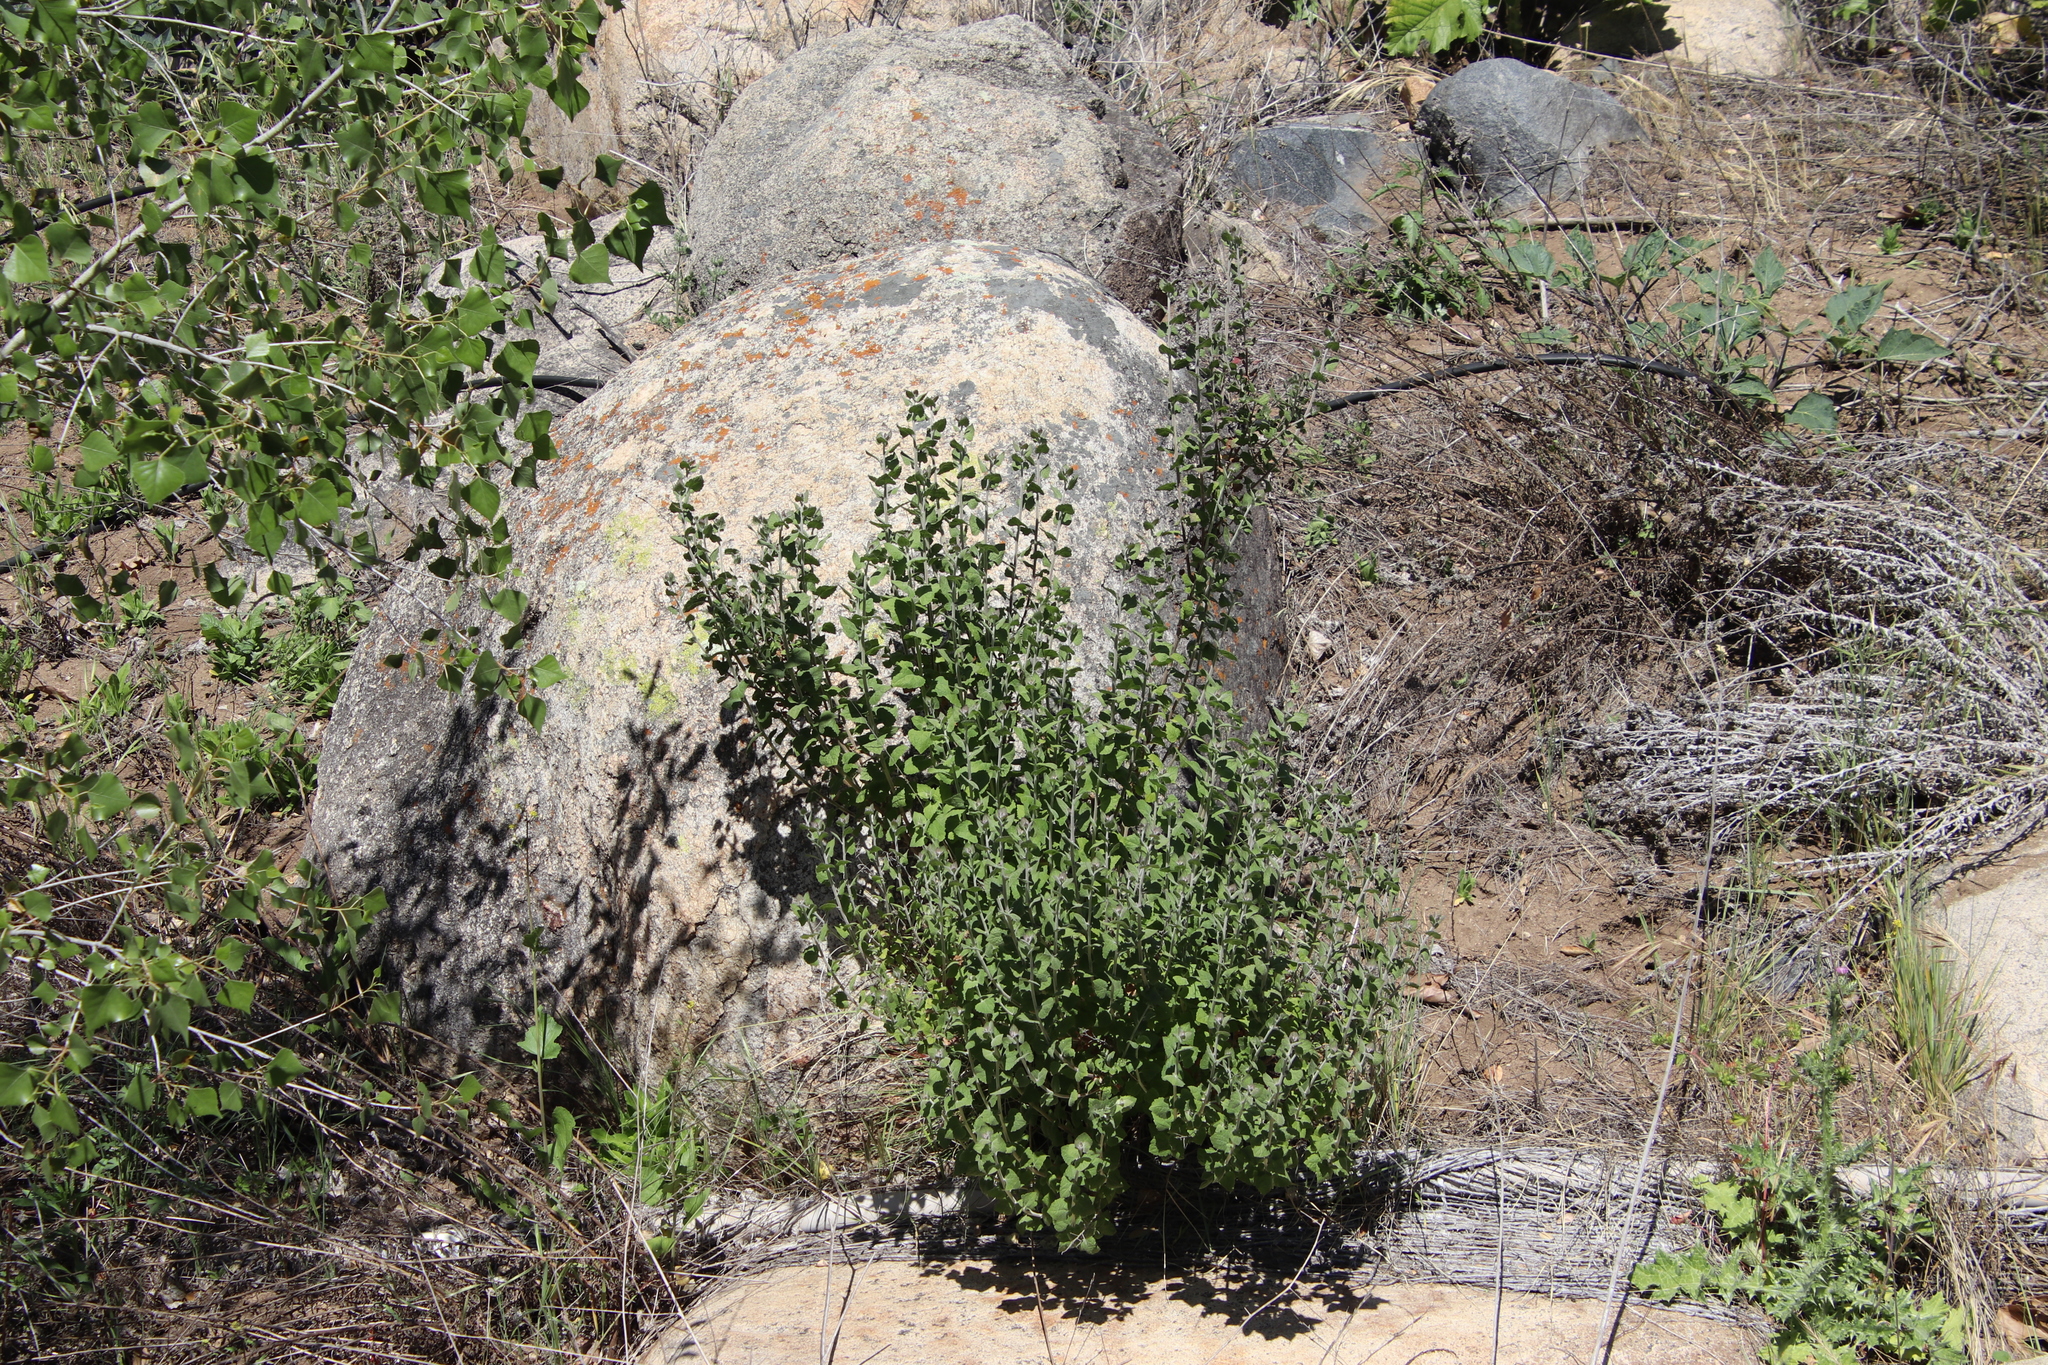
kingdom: Plantae
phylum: Tracheophyta
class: Magnoliopsida
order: Asterales
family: Asteraceae
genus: Brickellia
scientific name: Brickellia californica
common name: California brickellbush
